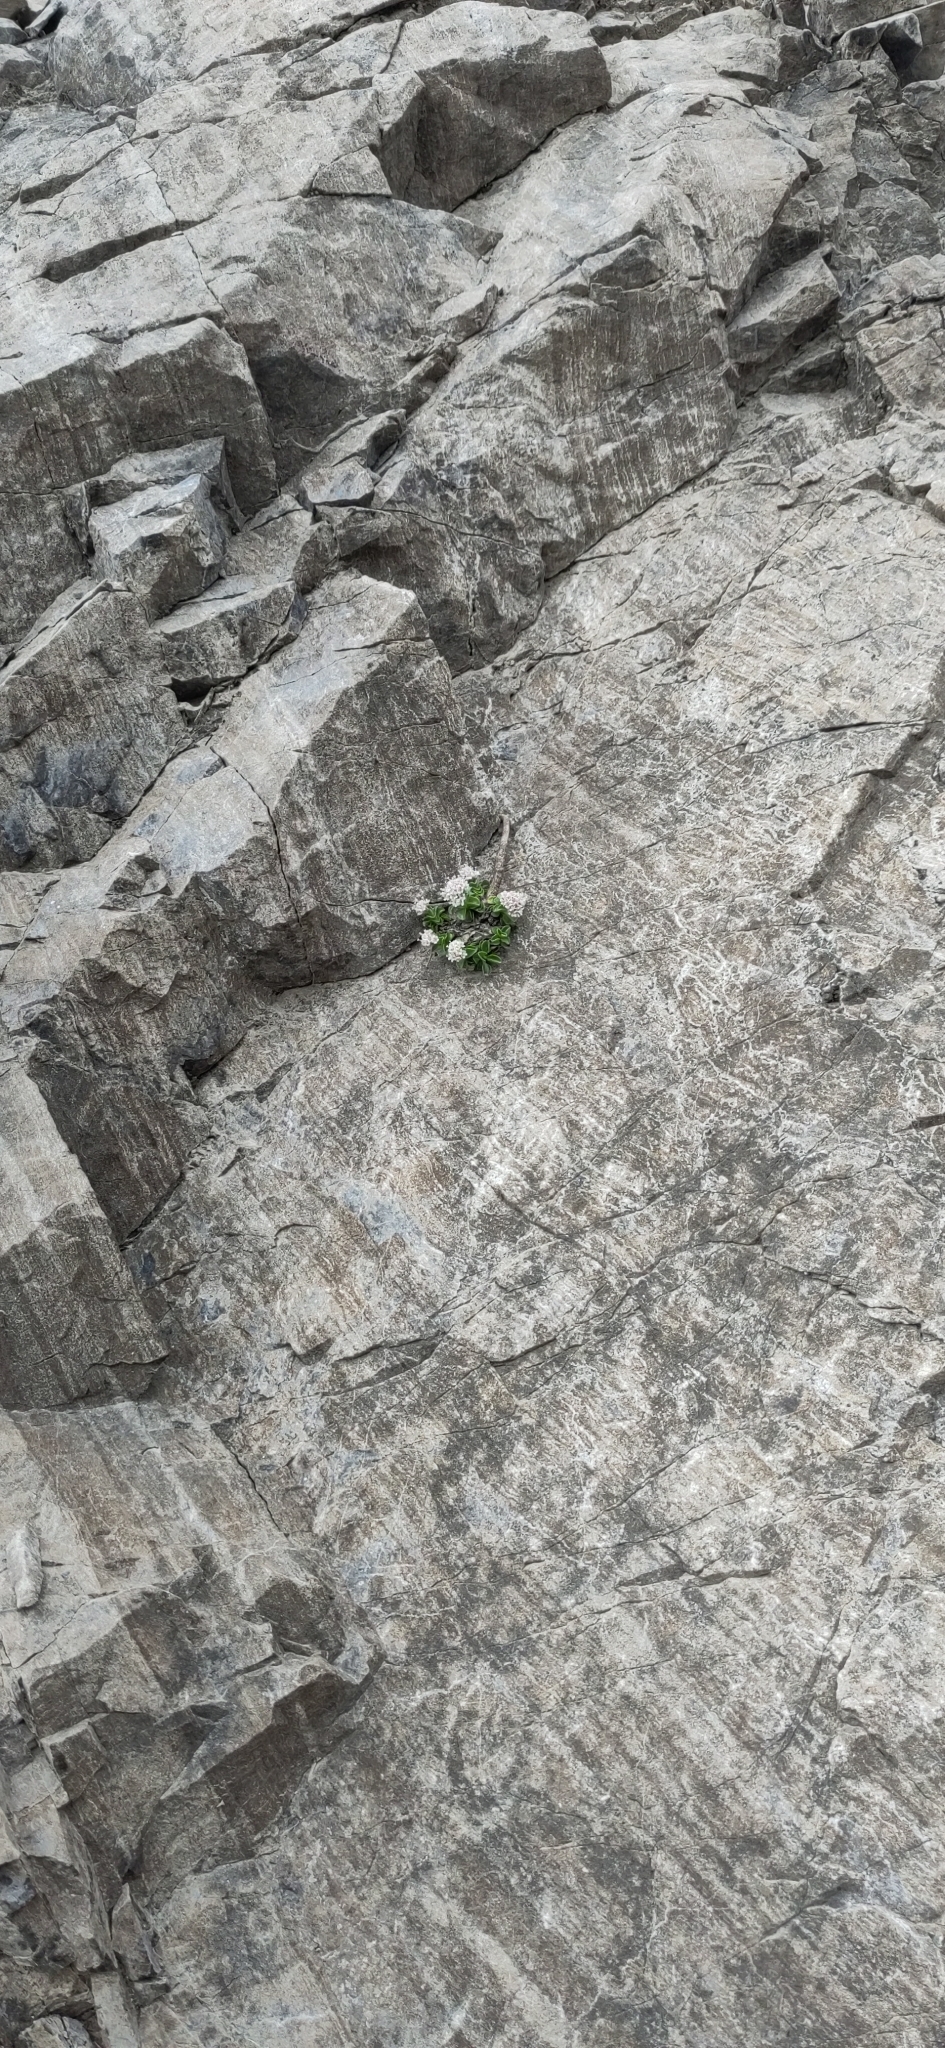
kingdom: Plantae
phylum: Tracheophyta
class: Magnoliopsida
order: Dipsacales
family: Caprifoliaceae
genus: Valeriana
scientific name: Valeriana supina
